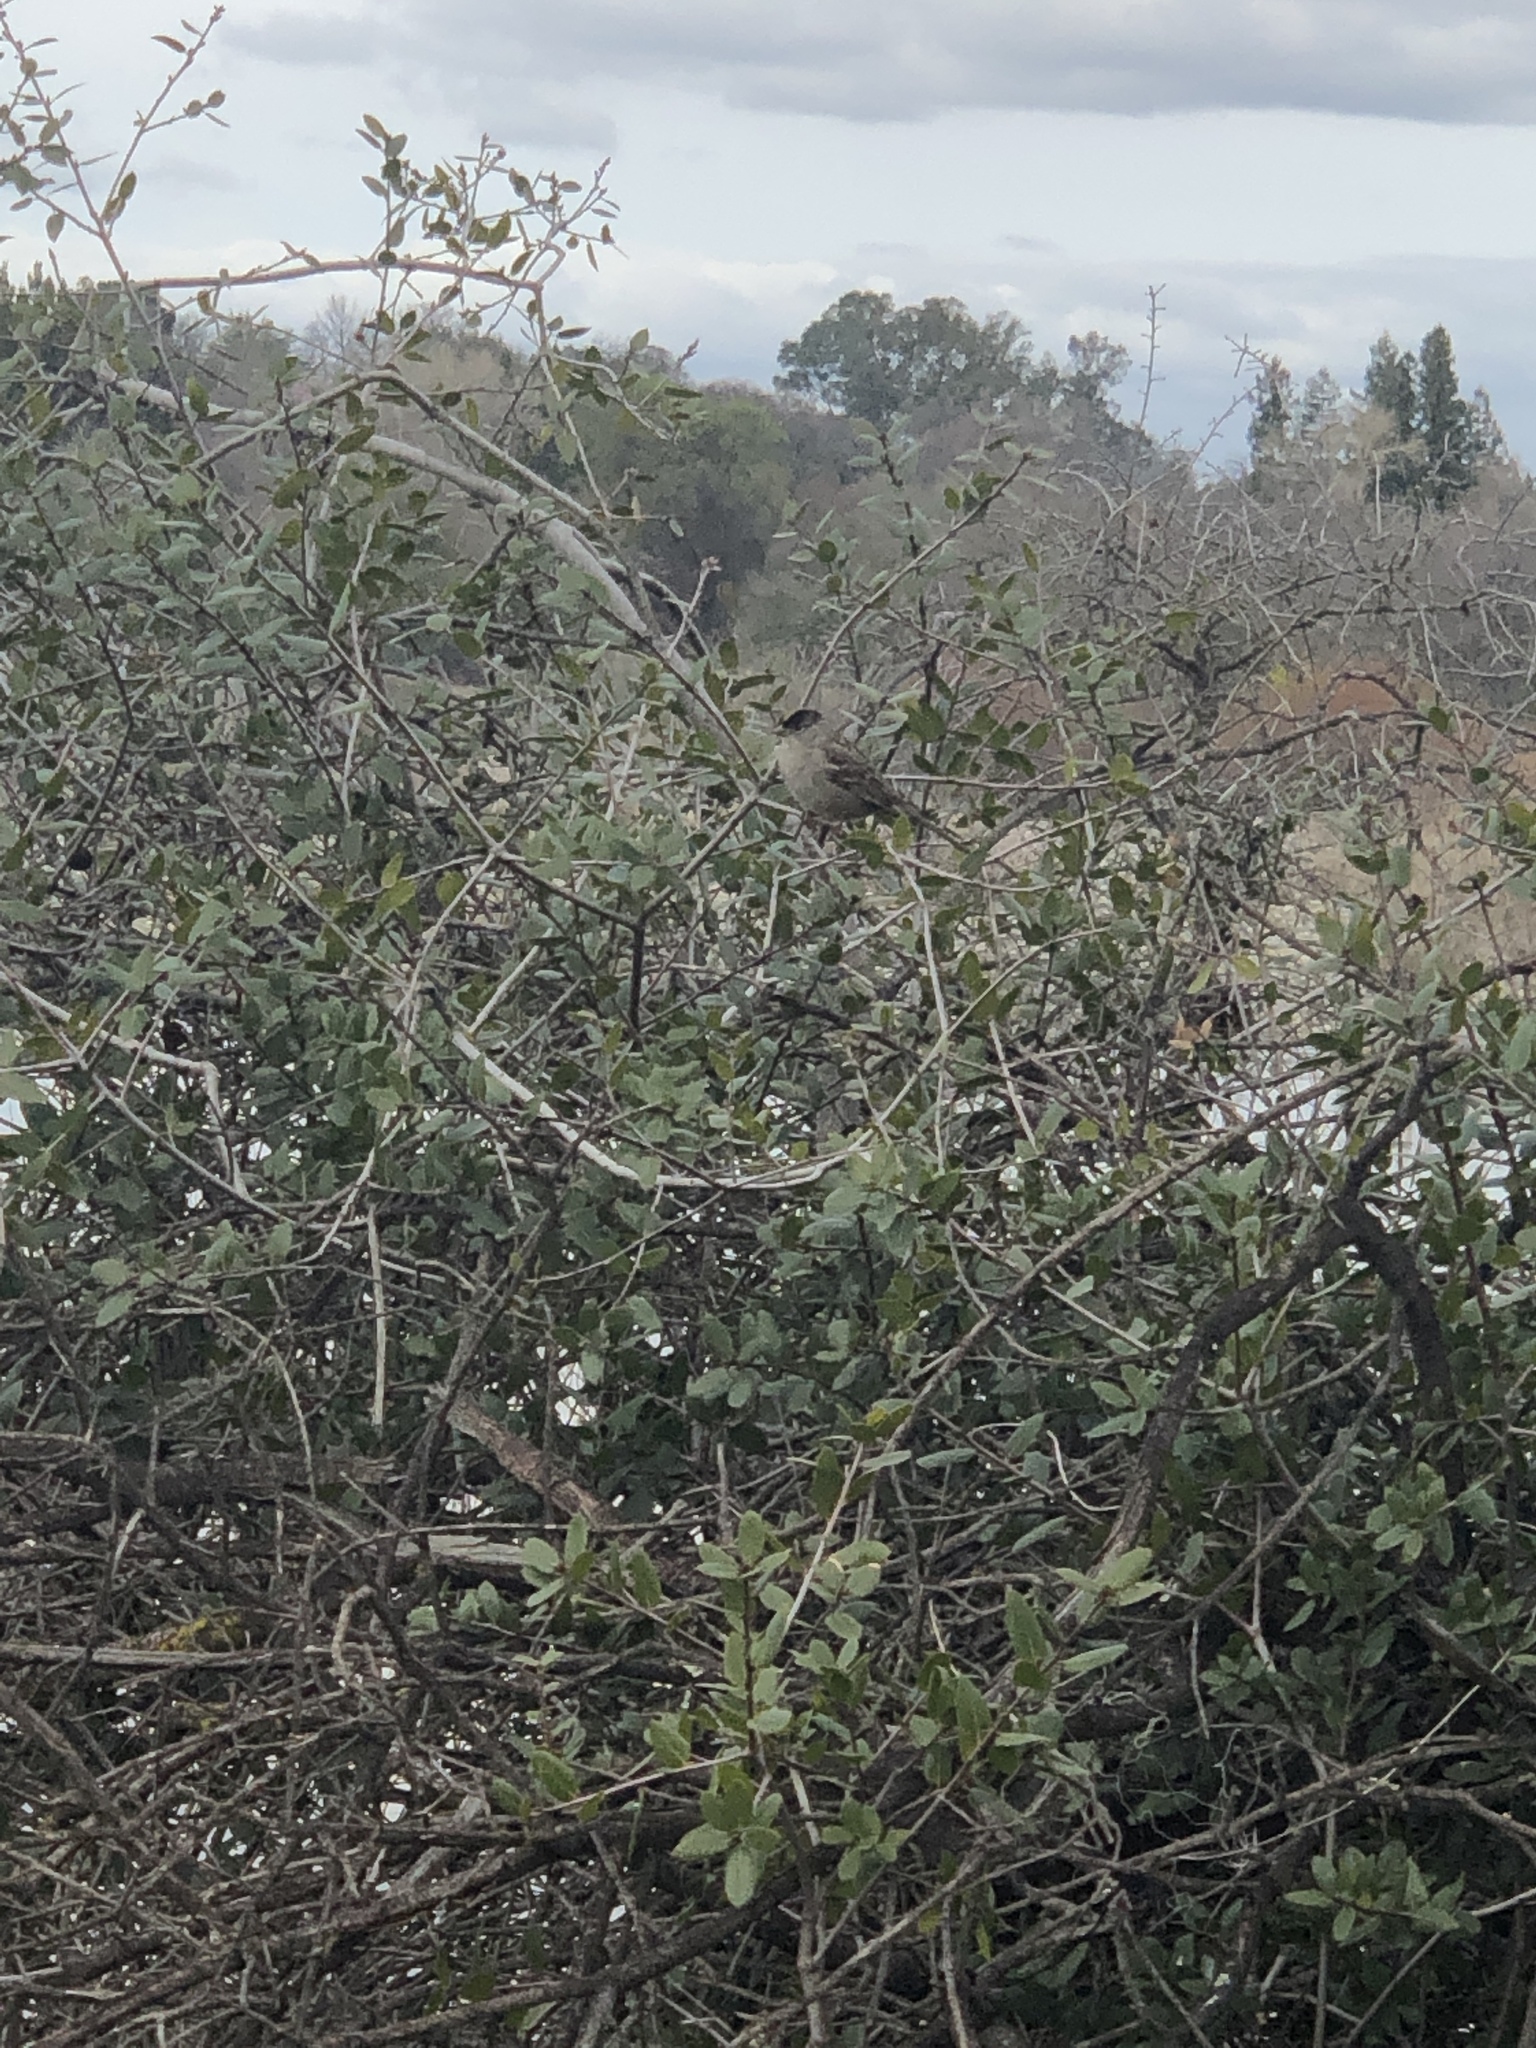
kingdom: Animalia
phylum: Chordata
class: Aves
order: Passeriformes
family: Passerellidae
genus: Zonotrichia
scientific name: Zonotrichia atricapilla
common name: Golden-crowned sparrow
